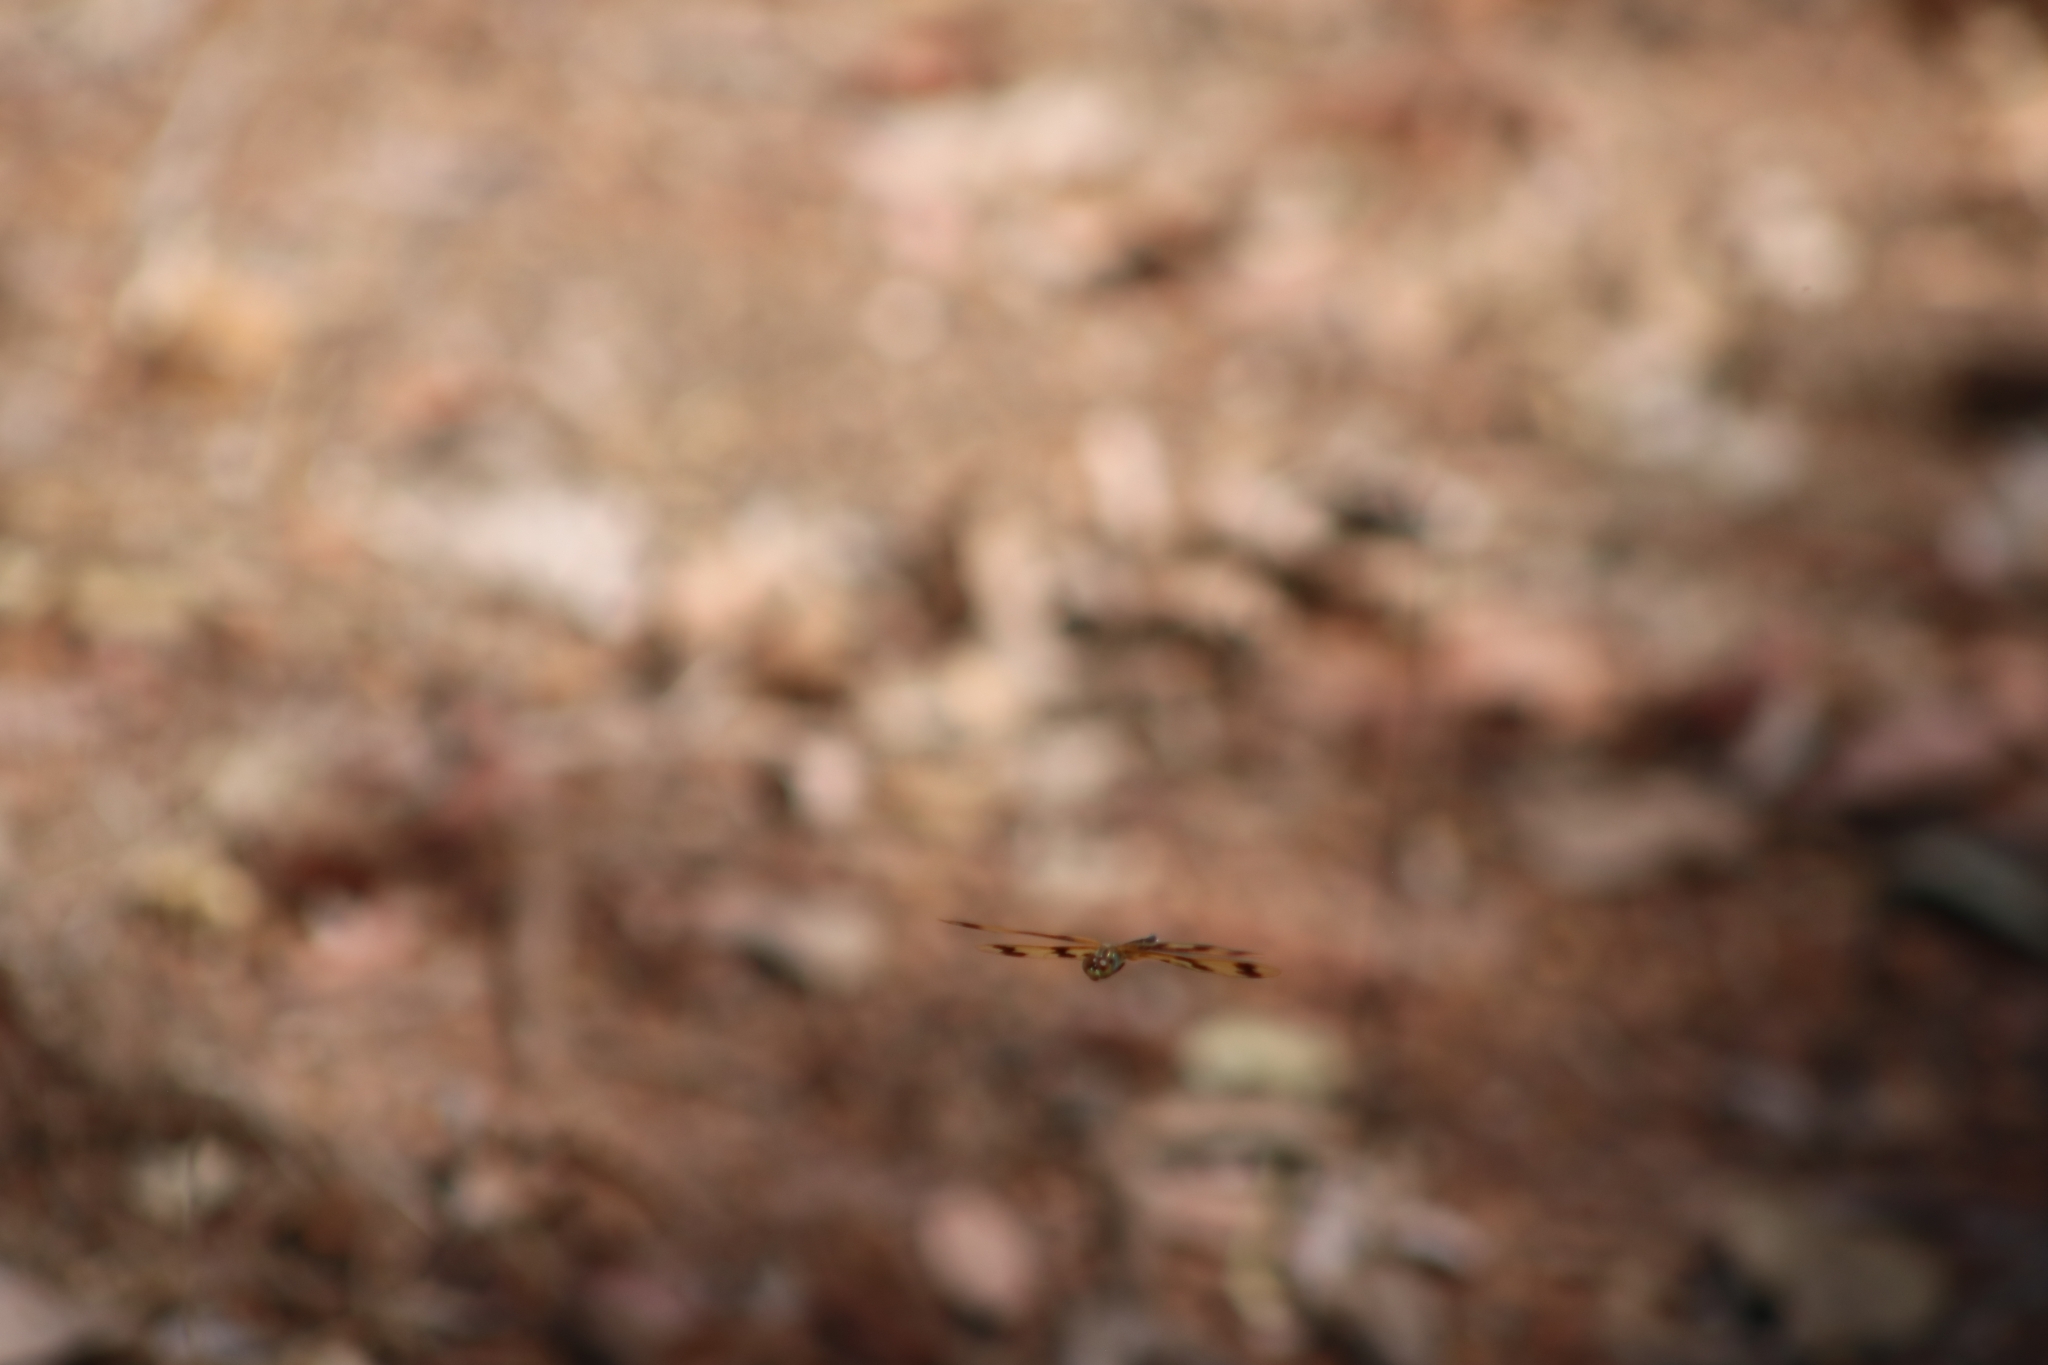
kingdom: Animalia
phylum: Arthropoda
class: Insecta
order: Odonata
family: Libellulidae
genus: Rhyothemis
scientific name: Rhyothemis graphiptera
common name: Graphic flutterer
